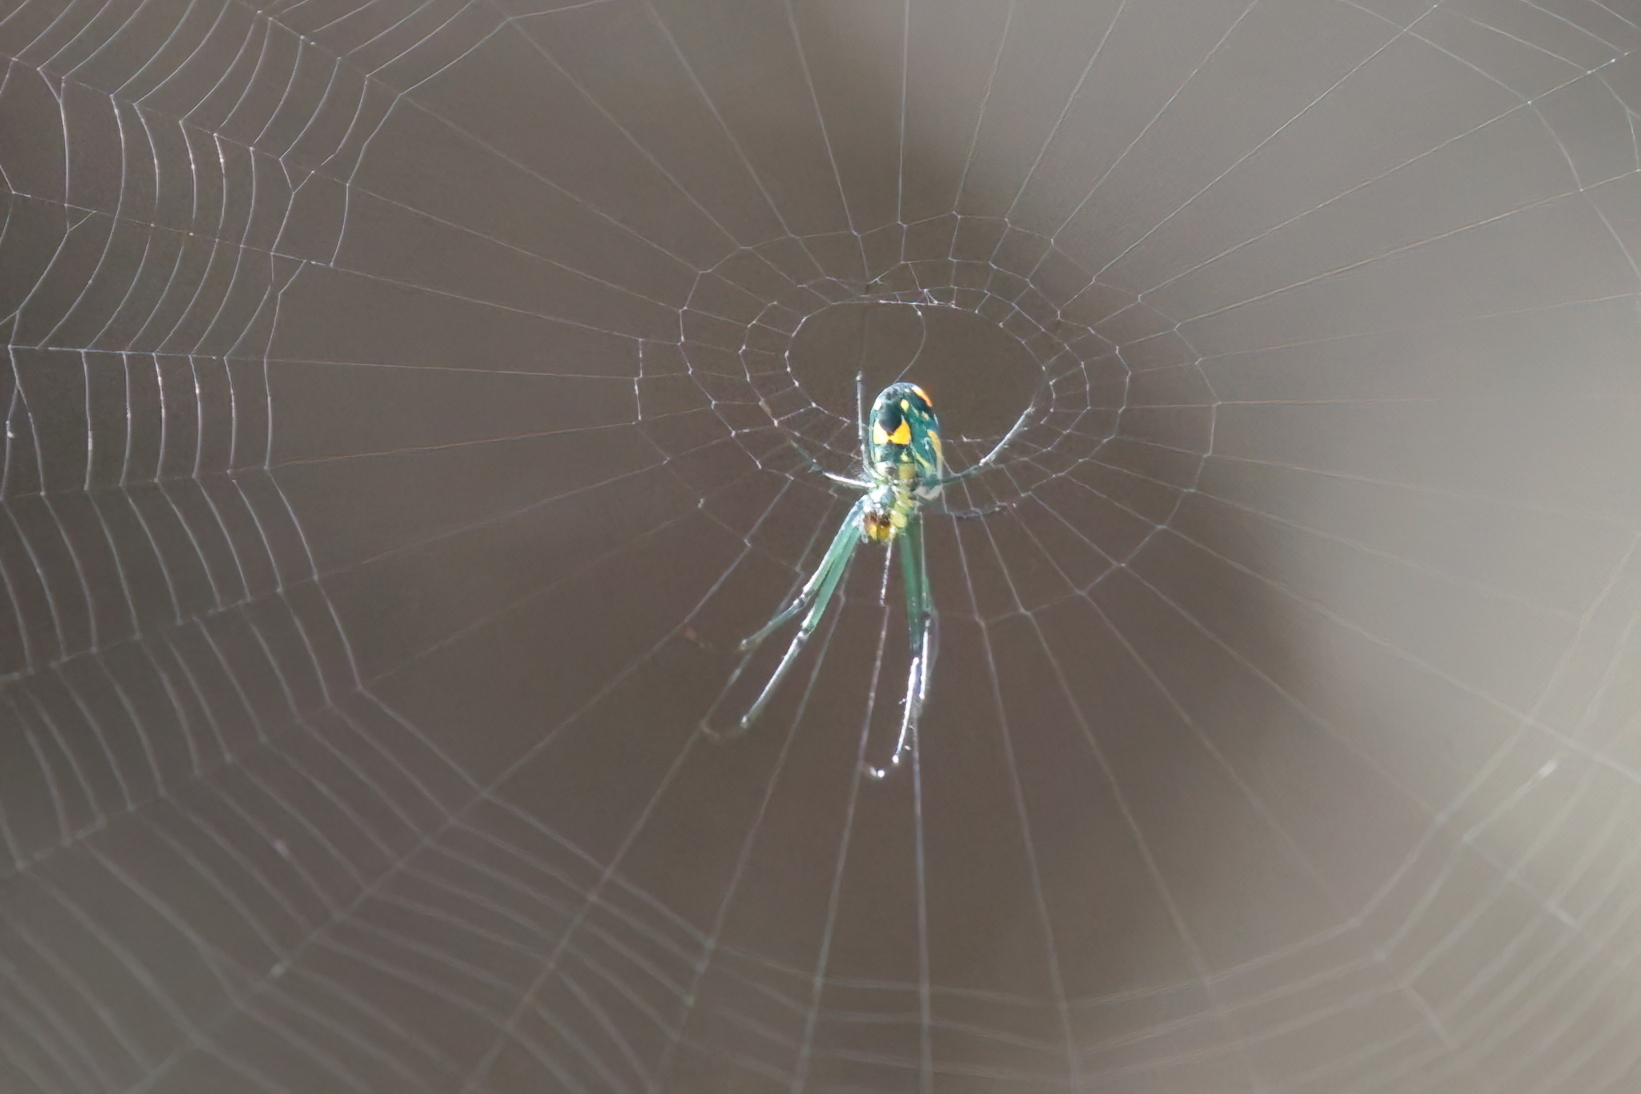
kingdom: Animalia
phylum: Arthropoda
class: Arachnida
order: Araneae
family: Tetragnathidae
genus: Leucauge
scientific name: Leucauge argyrobapta
